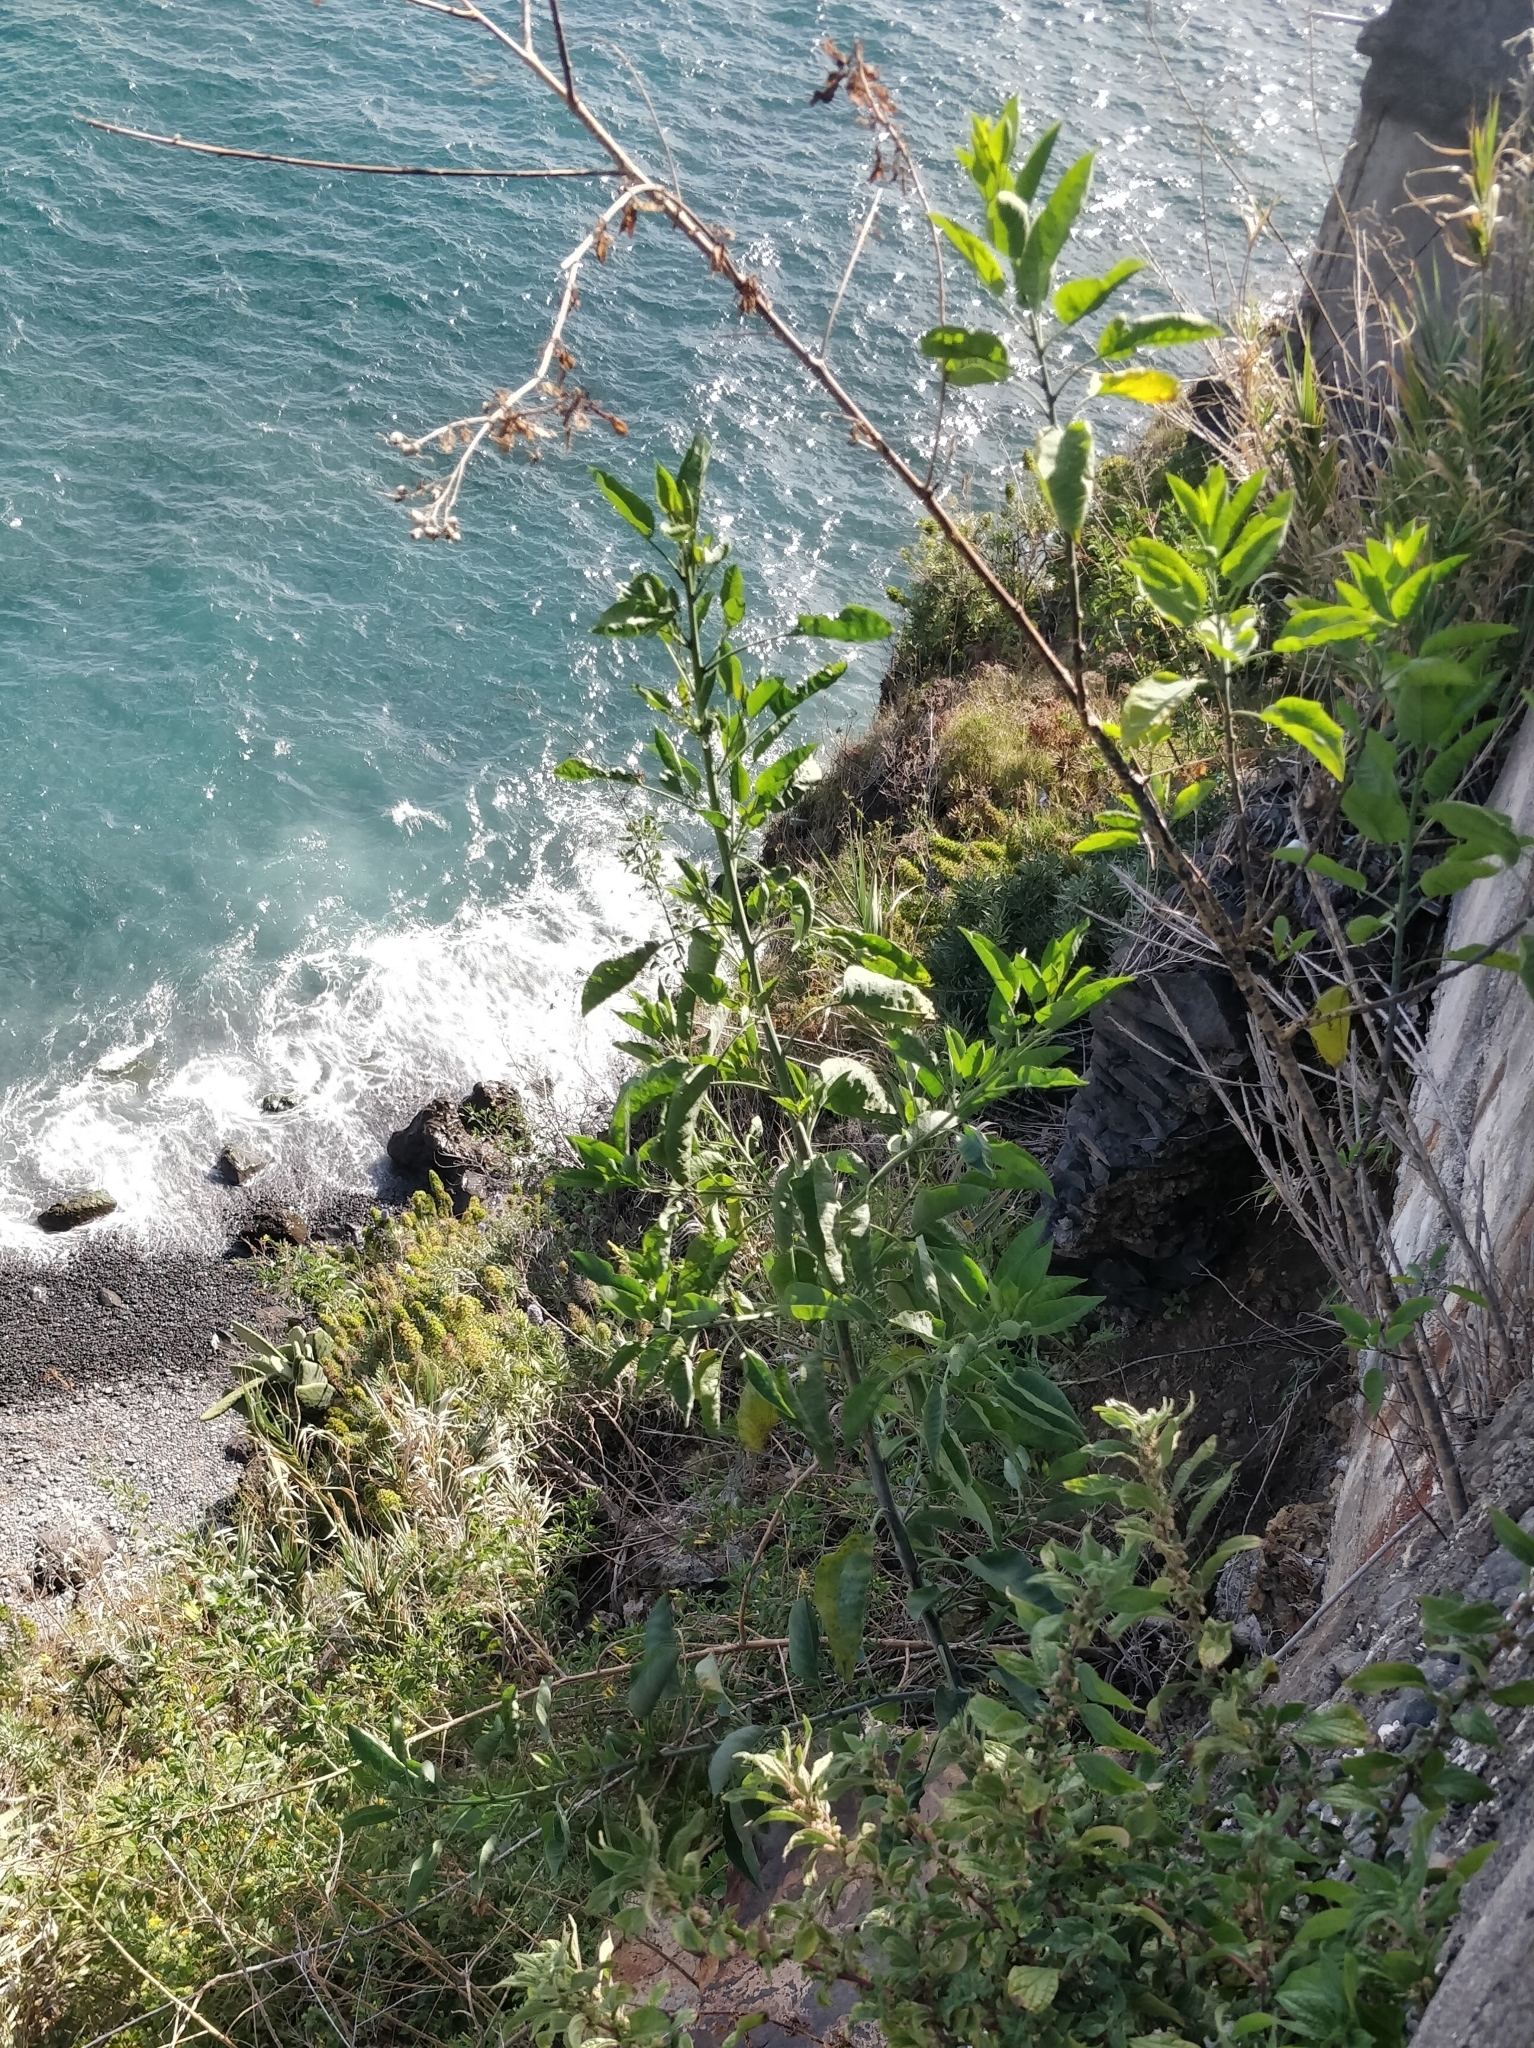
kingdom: Plantae
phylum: Tracheophyta
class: Magnoliopsida
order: Solanales
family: Solanaceae
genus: Nicotiana
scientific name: Nicotiana glauca
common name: Tree tobacco
